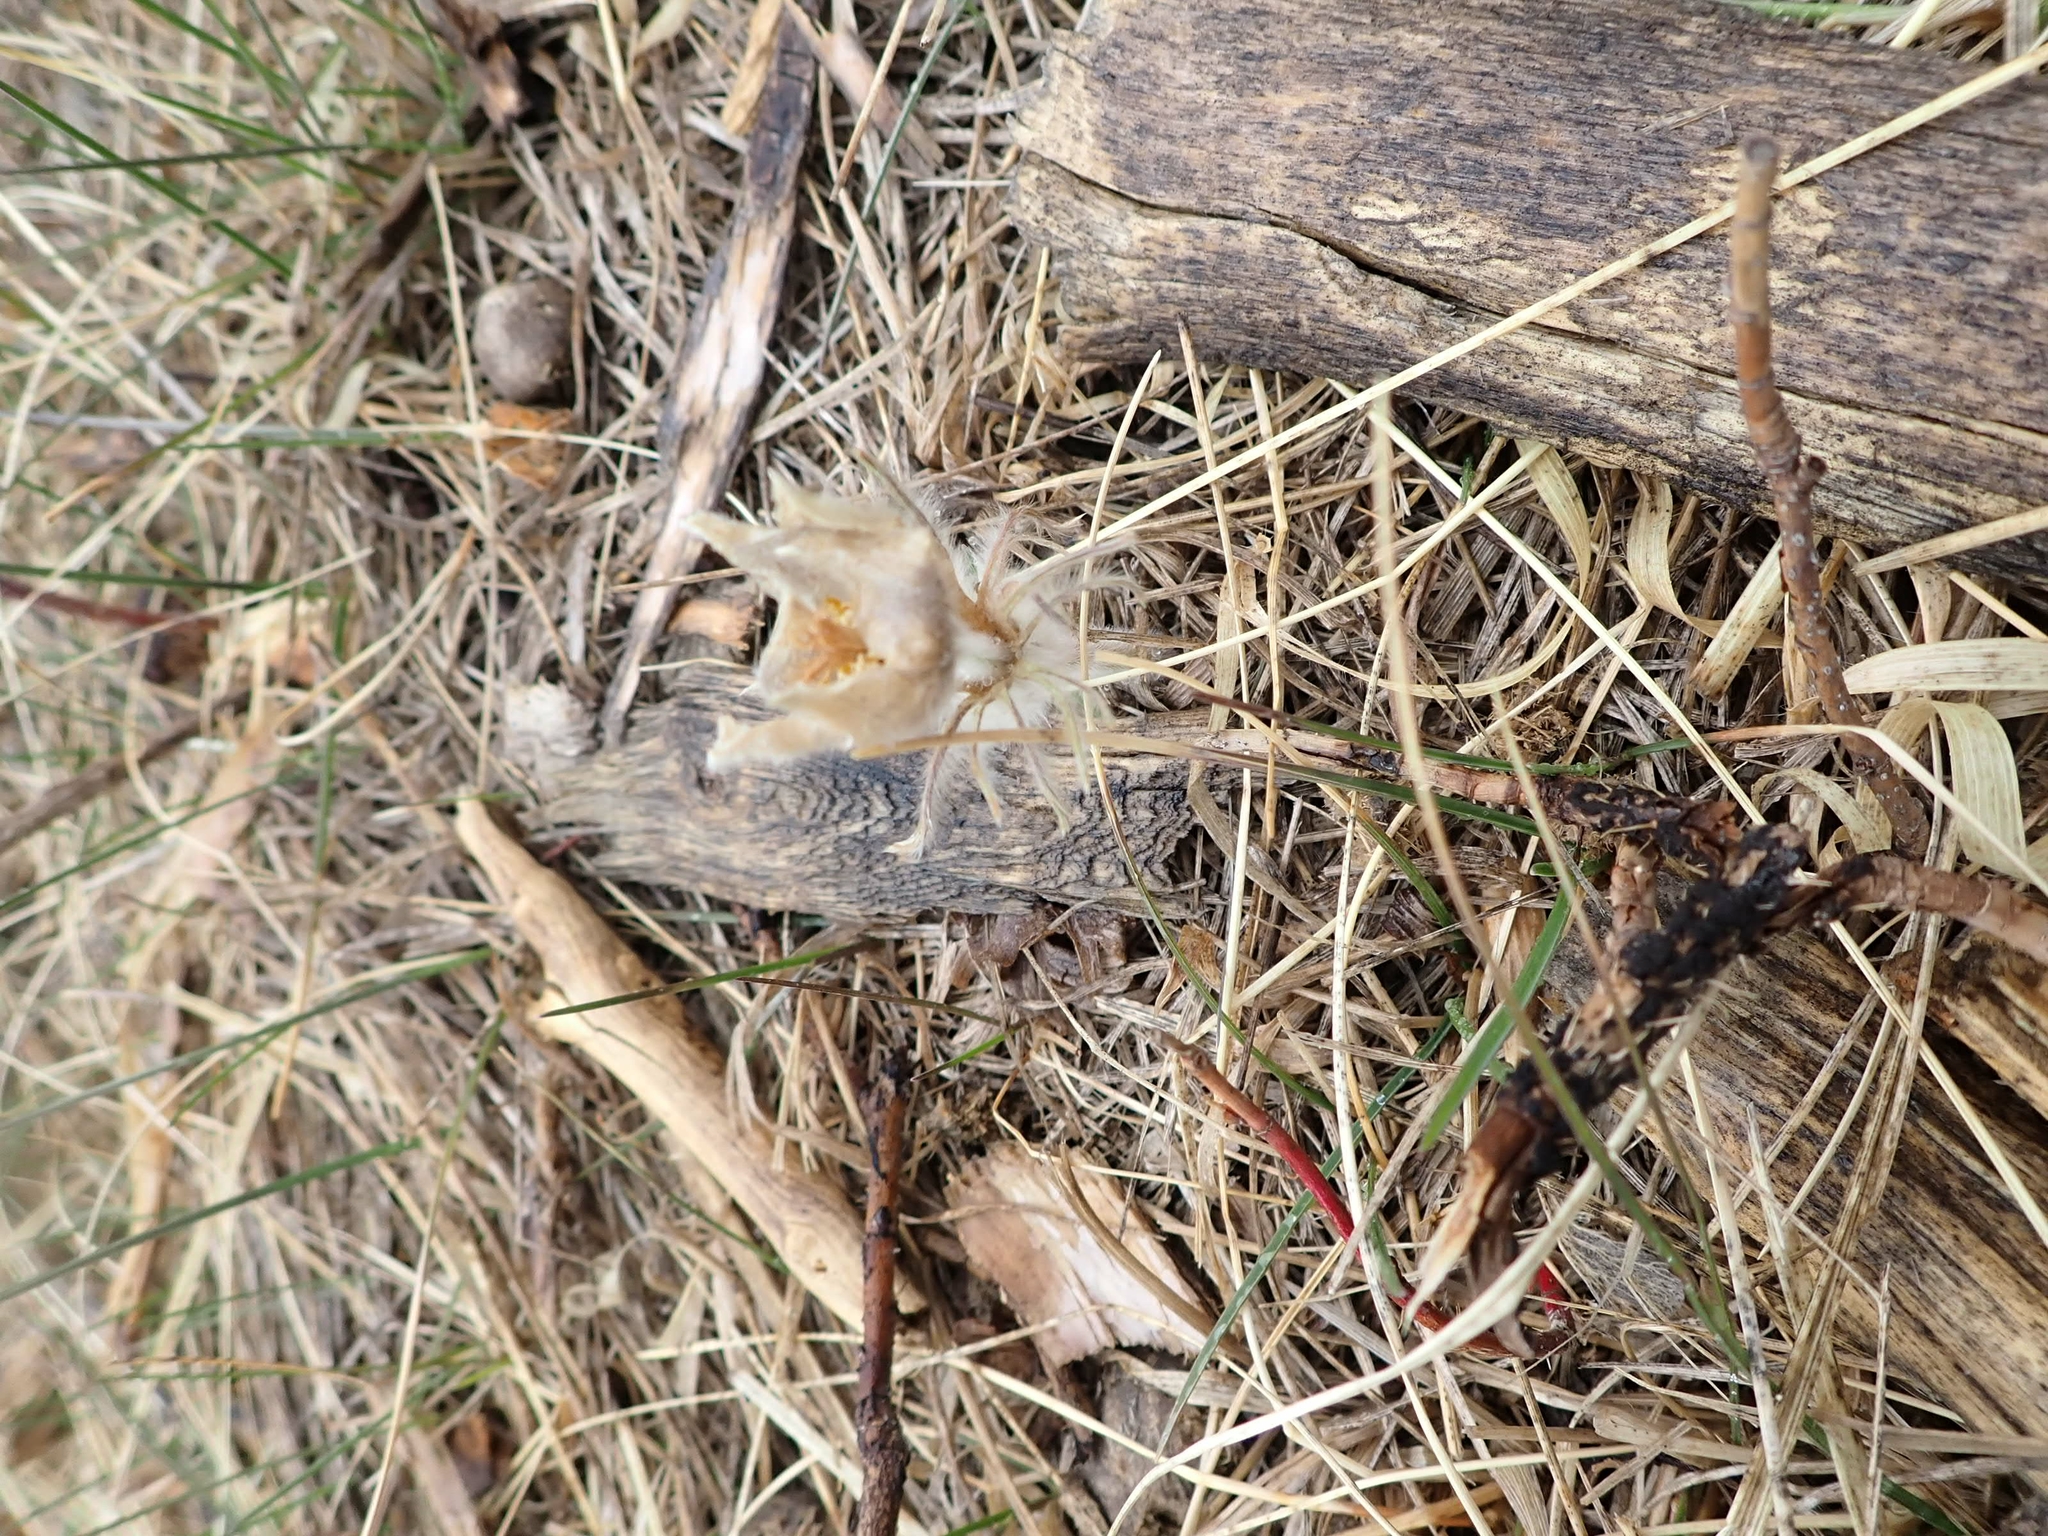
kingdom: Plantae
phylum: Tracheophyta
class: Magnoliopsida
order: Ranunculales
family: Ranunculaceae
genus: Pulsatilla
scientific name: Pulsatilla nuttalliana
